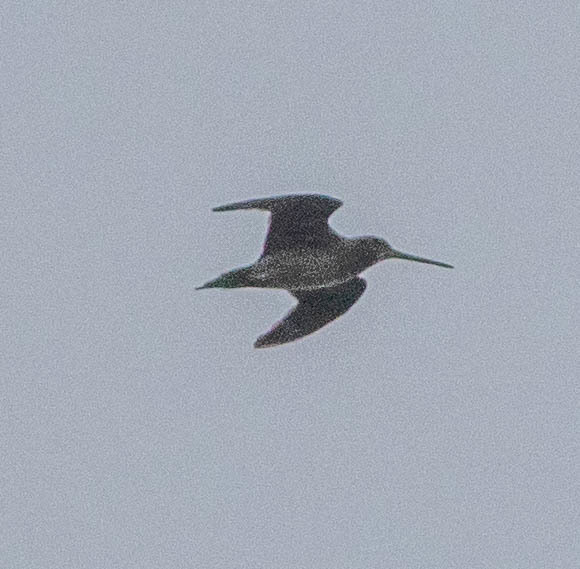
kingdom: Animalia
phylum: Chordata
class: Aves
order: Charadriiformes
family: Scolopacidae
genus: Gallinago
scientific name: Gallinago delicata
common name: Wilson's snipe
